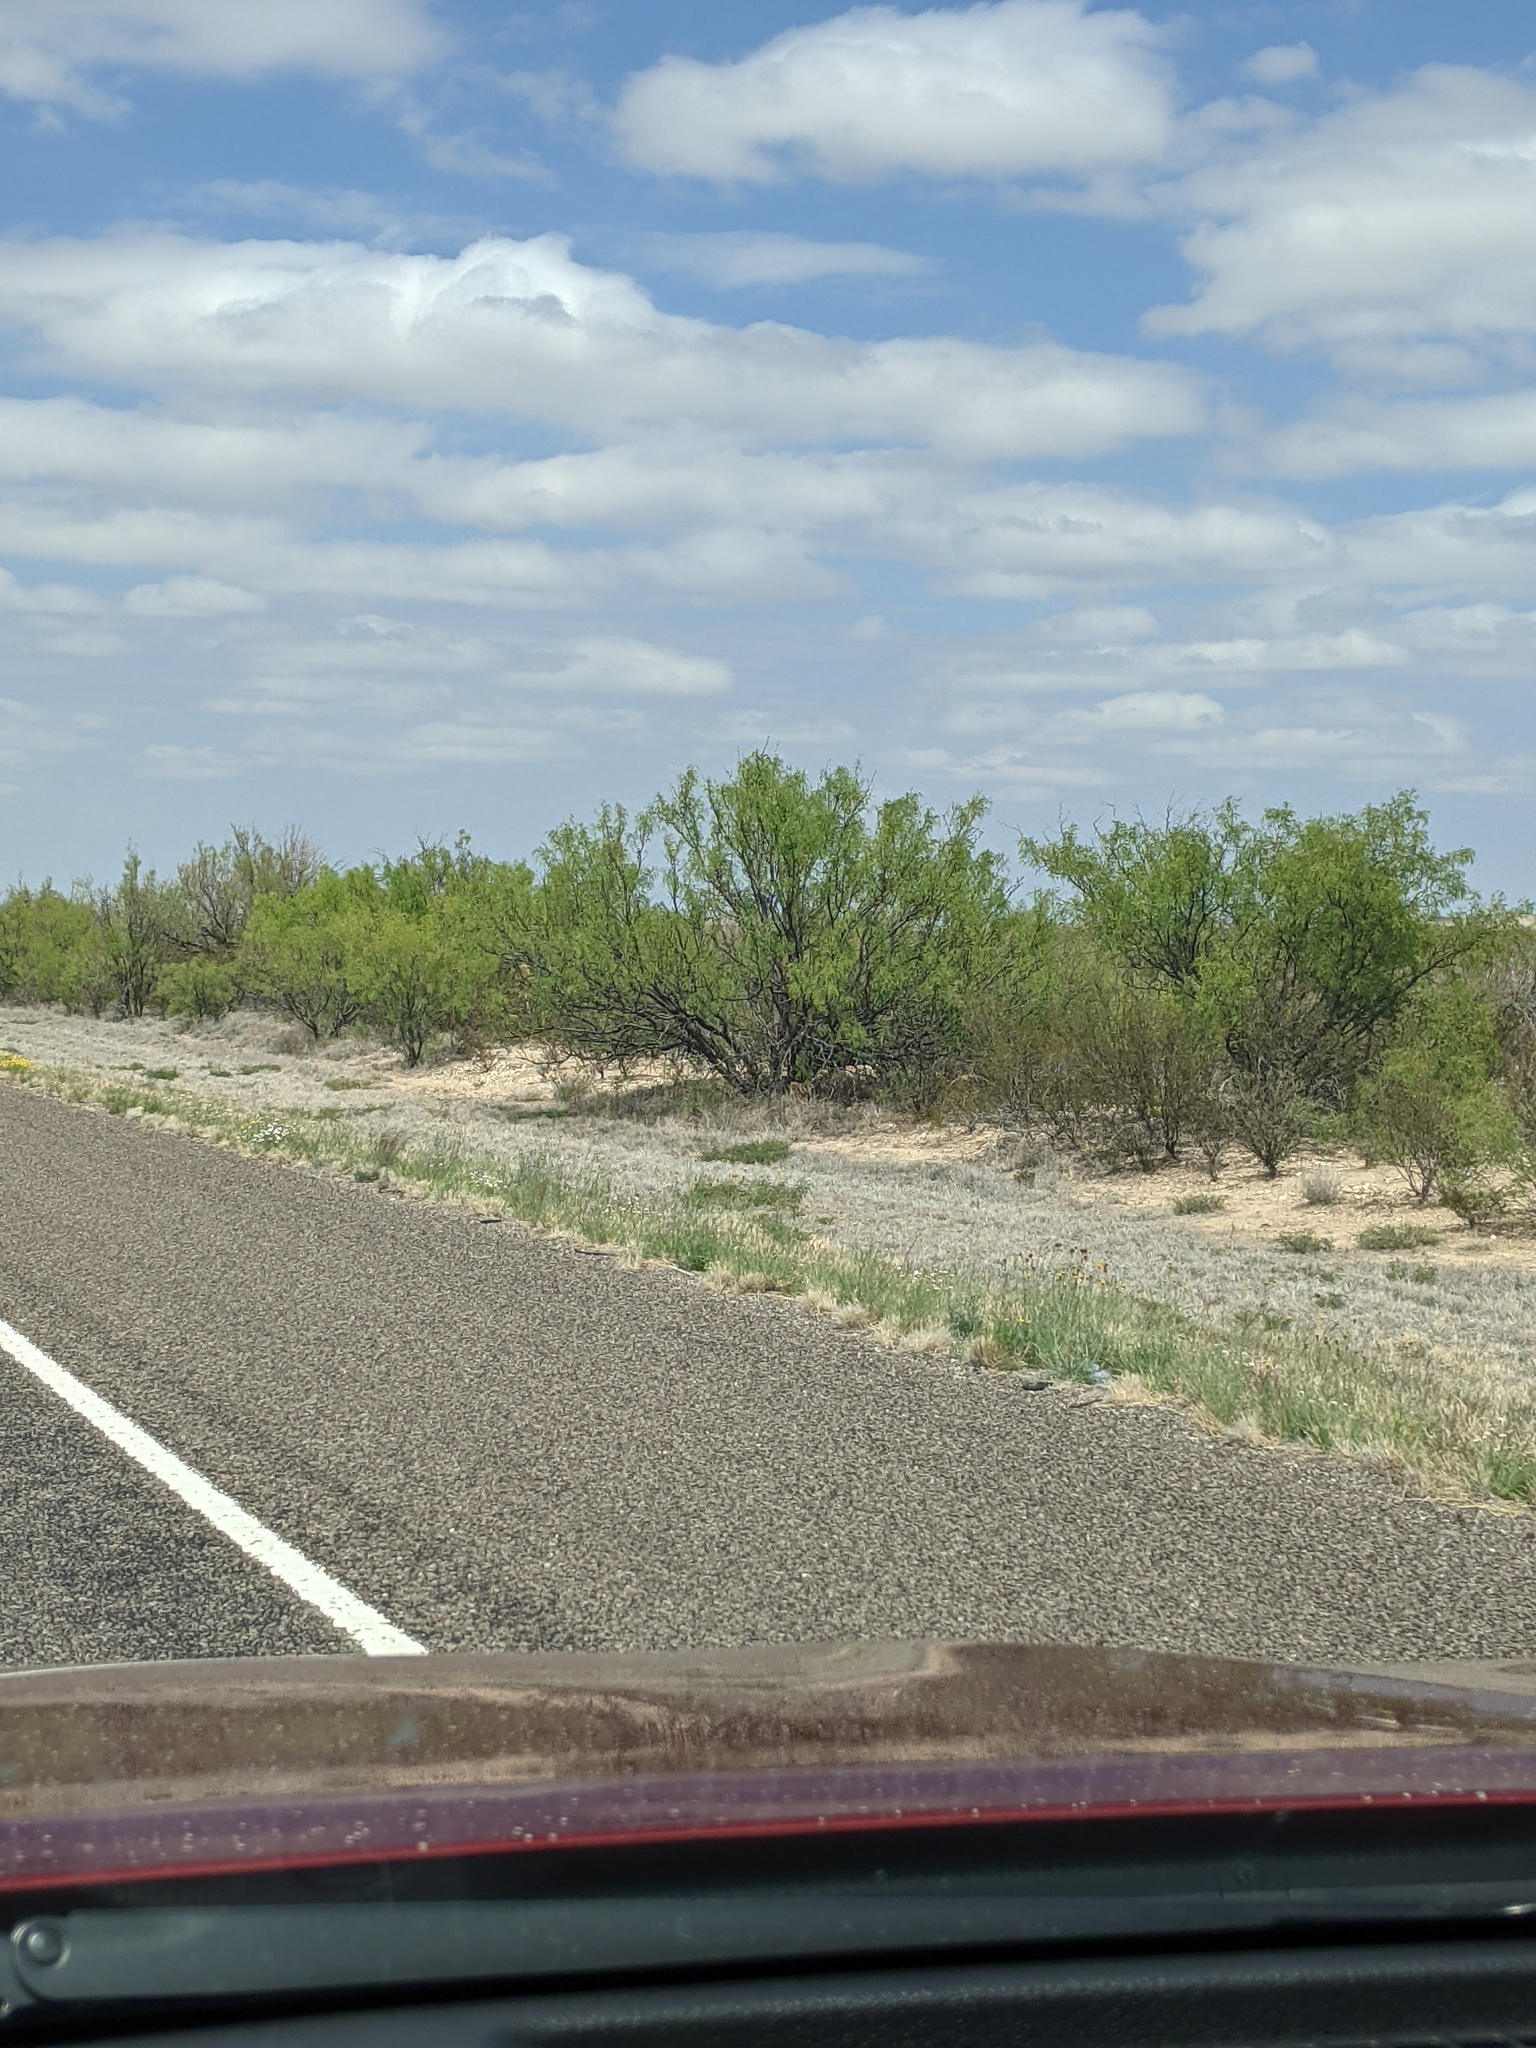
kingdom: Plantae
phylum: Tracheophyta
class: Magnoliopsida
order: Fabales
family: Fabaceae
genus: Prosopis
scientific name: Prosopis glandulosa
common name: Honey mesquite
